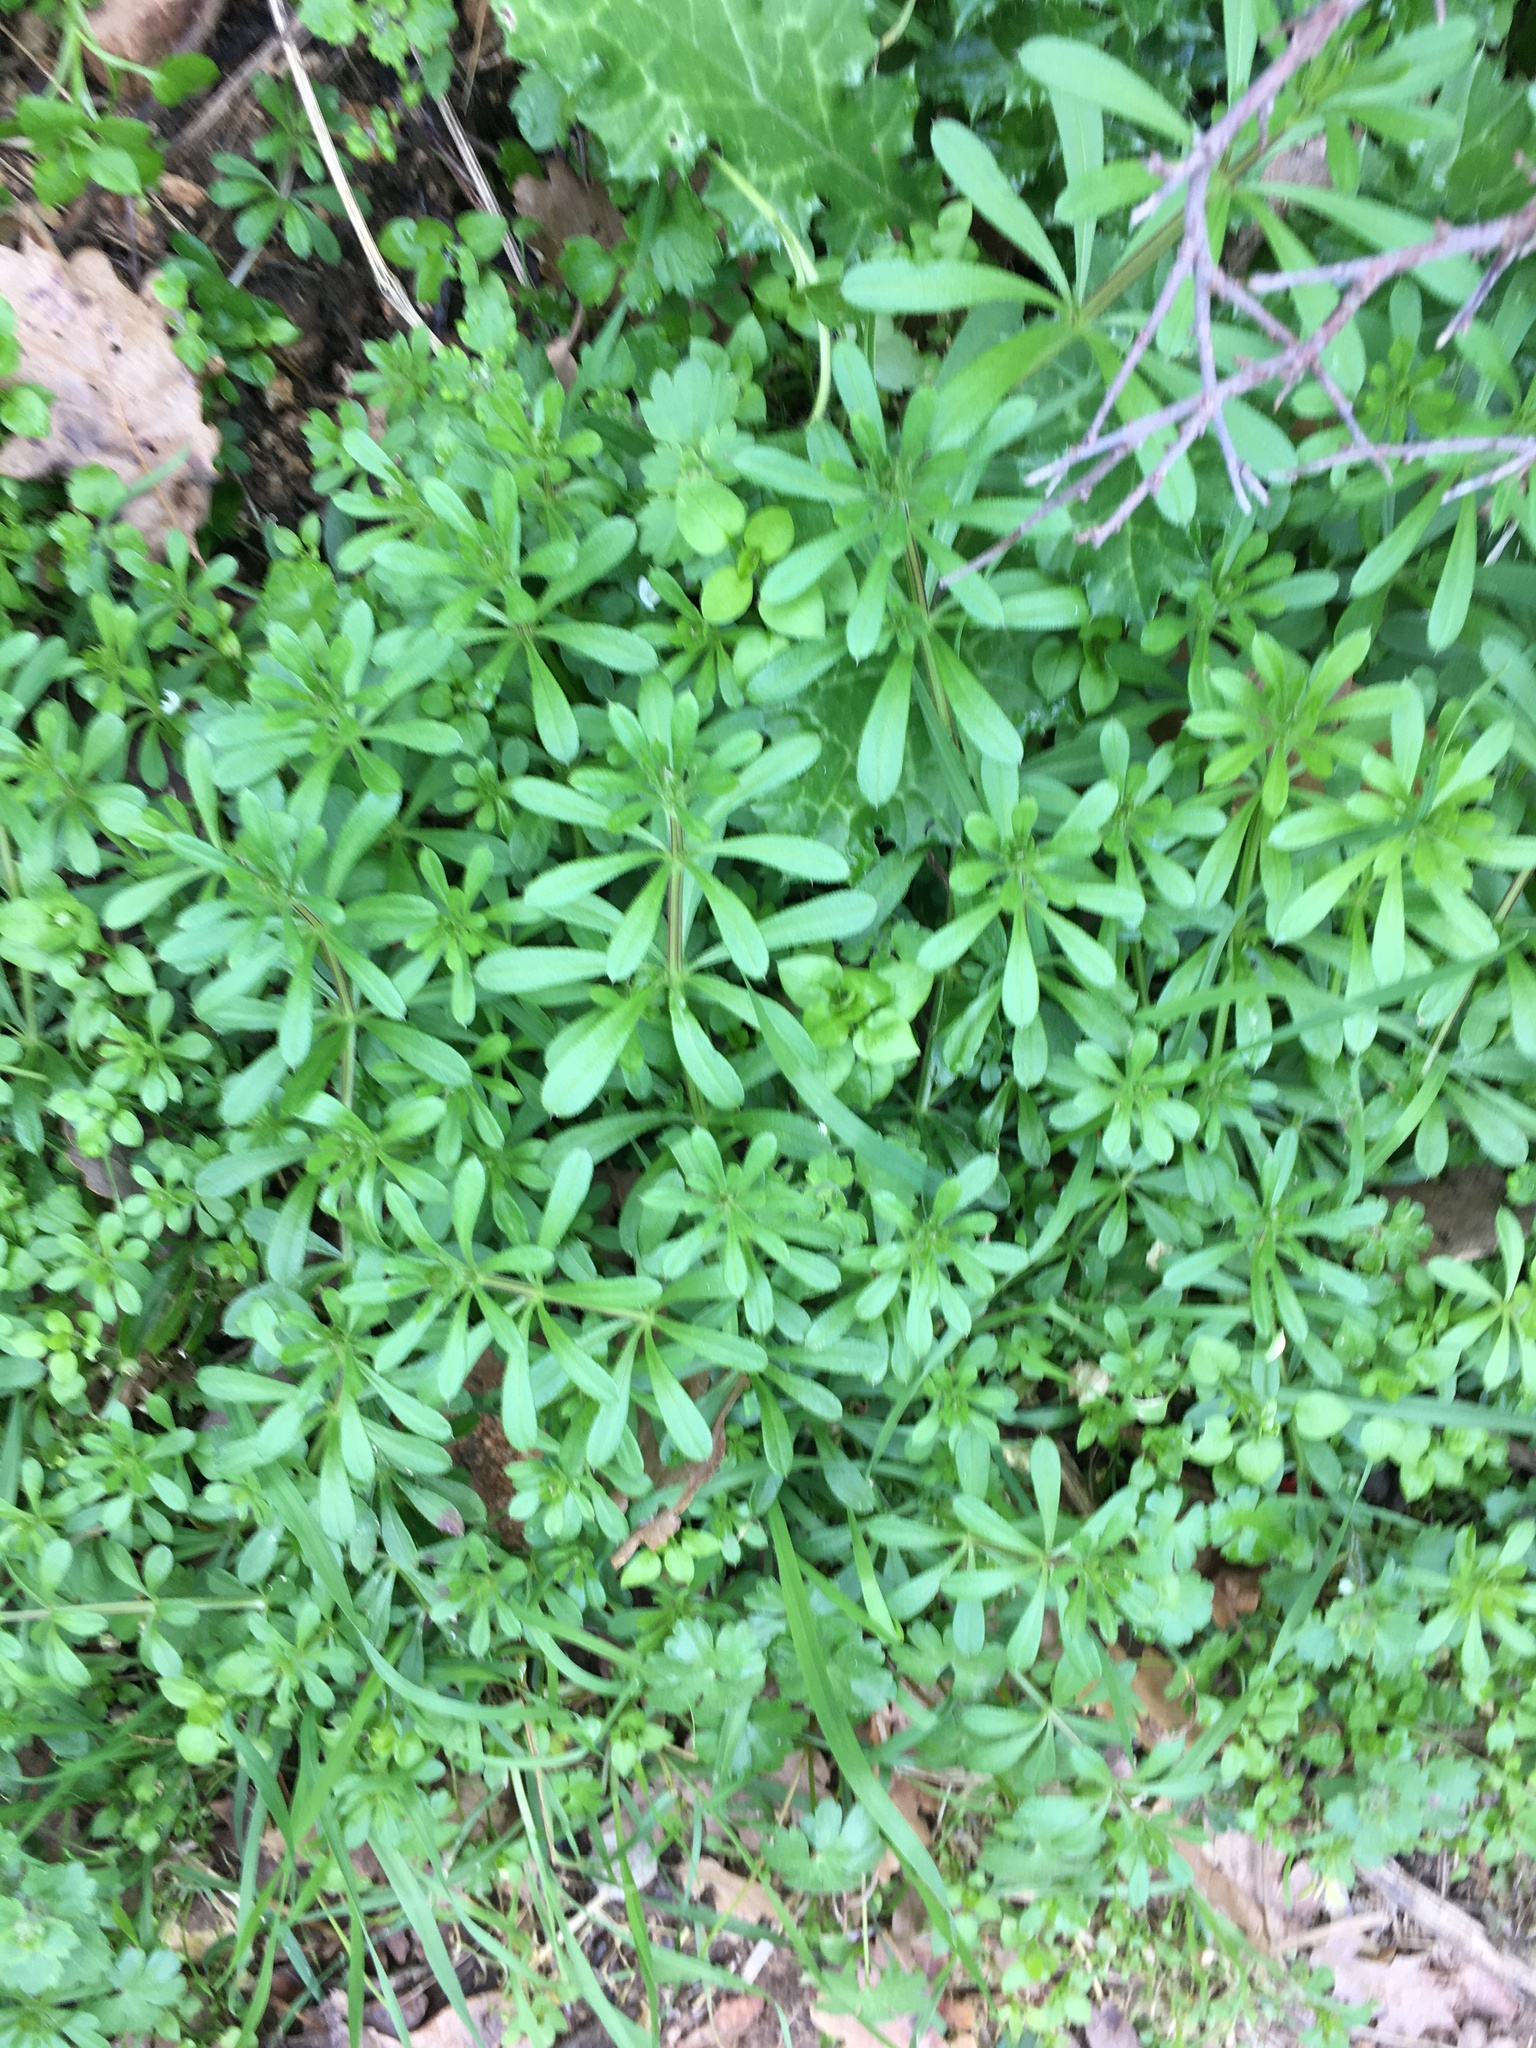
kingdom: Plantae
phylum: Tracheophyta
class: Magnoliopsida
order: Gentianales
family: Rubiaceae
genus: Galium
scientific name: Galium aparine
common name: Cleavers
